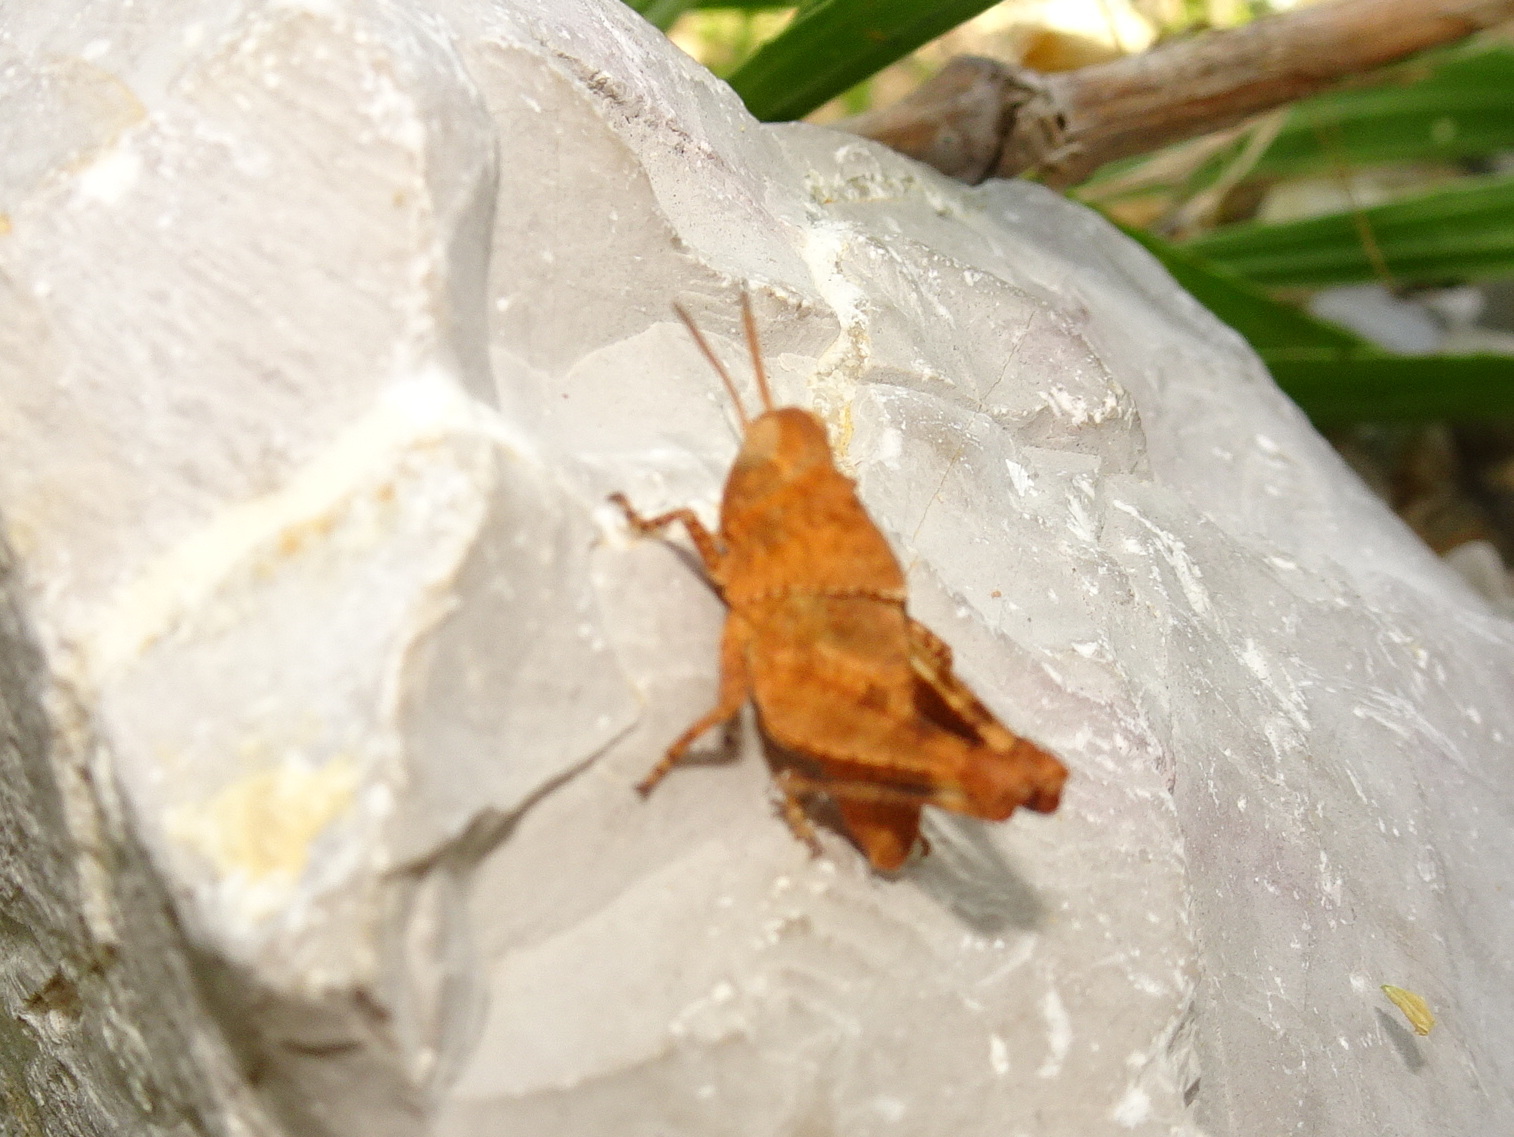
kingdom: Animalia
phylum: Arthropoda
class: Insecta
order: Orthoptera
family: Acrididae
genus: Oedipoda
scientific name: Oedipoda
